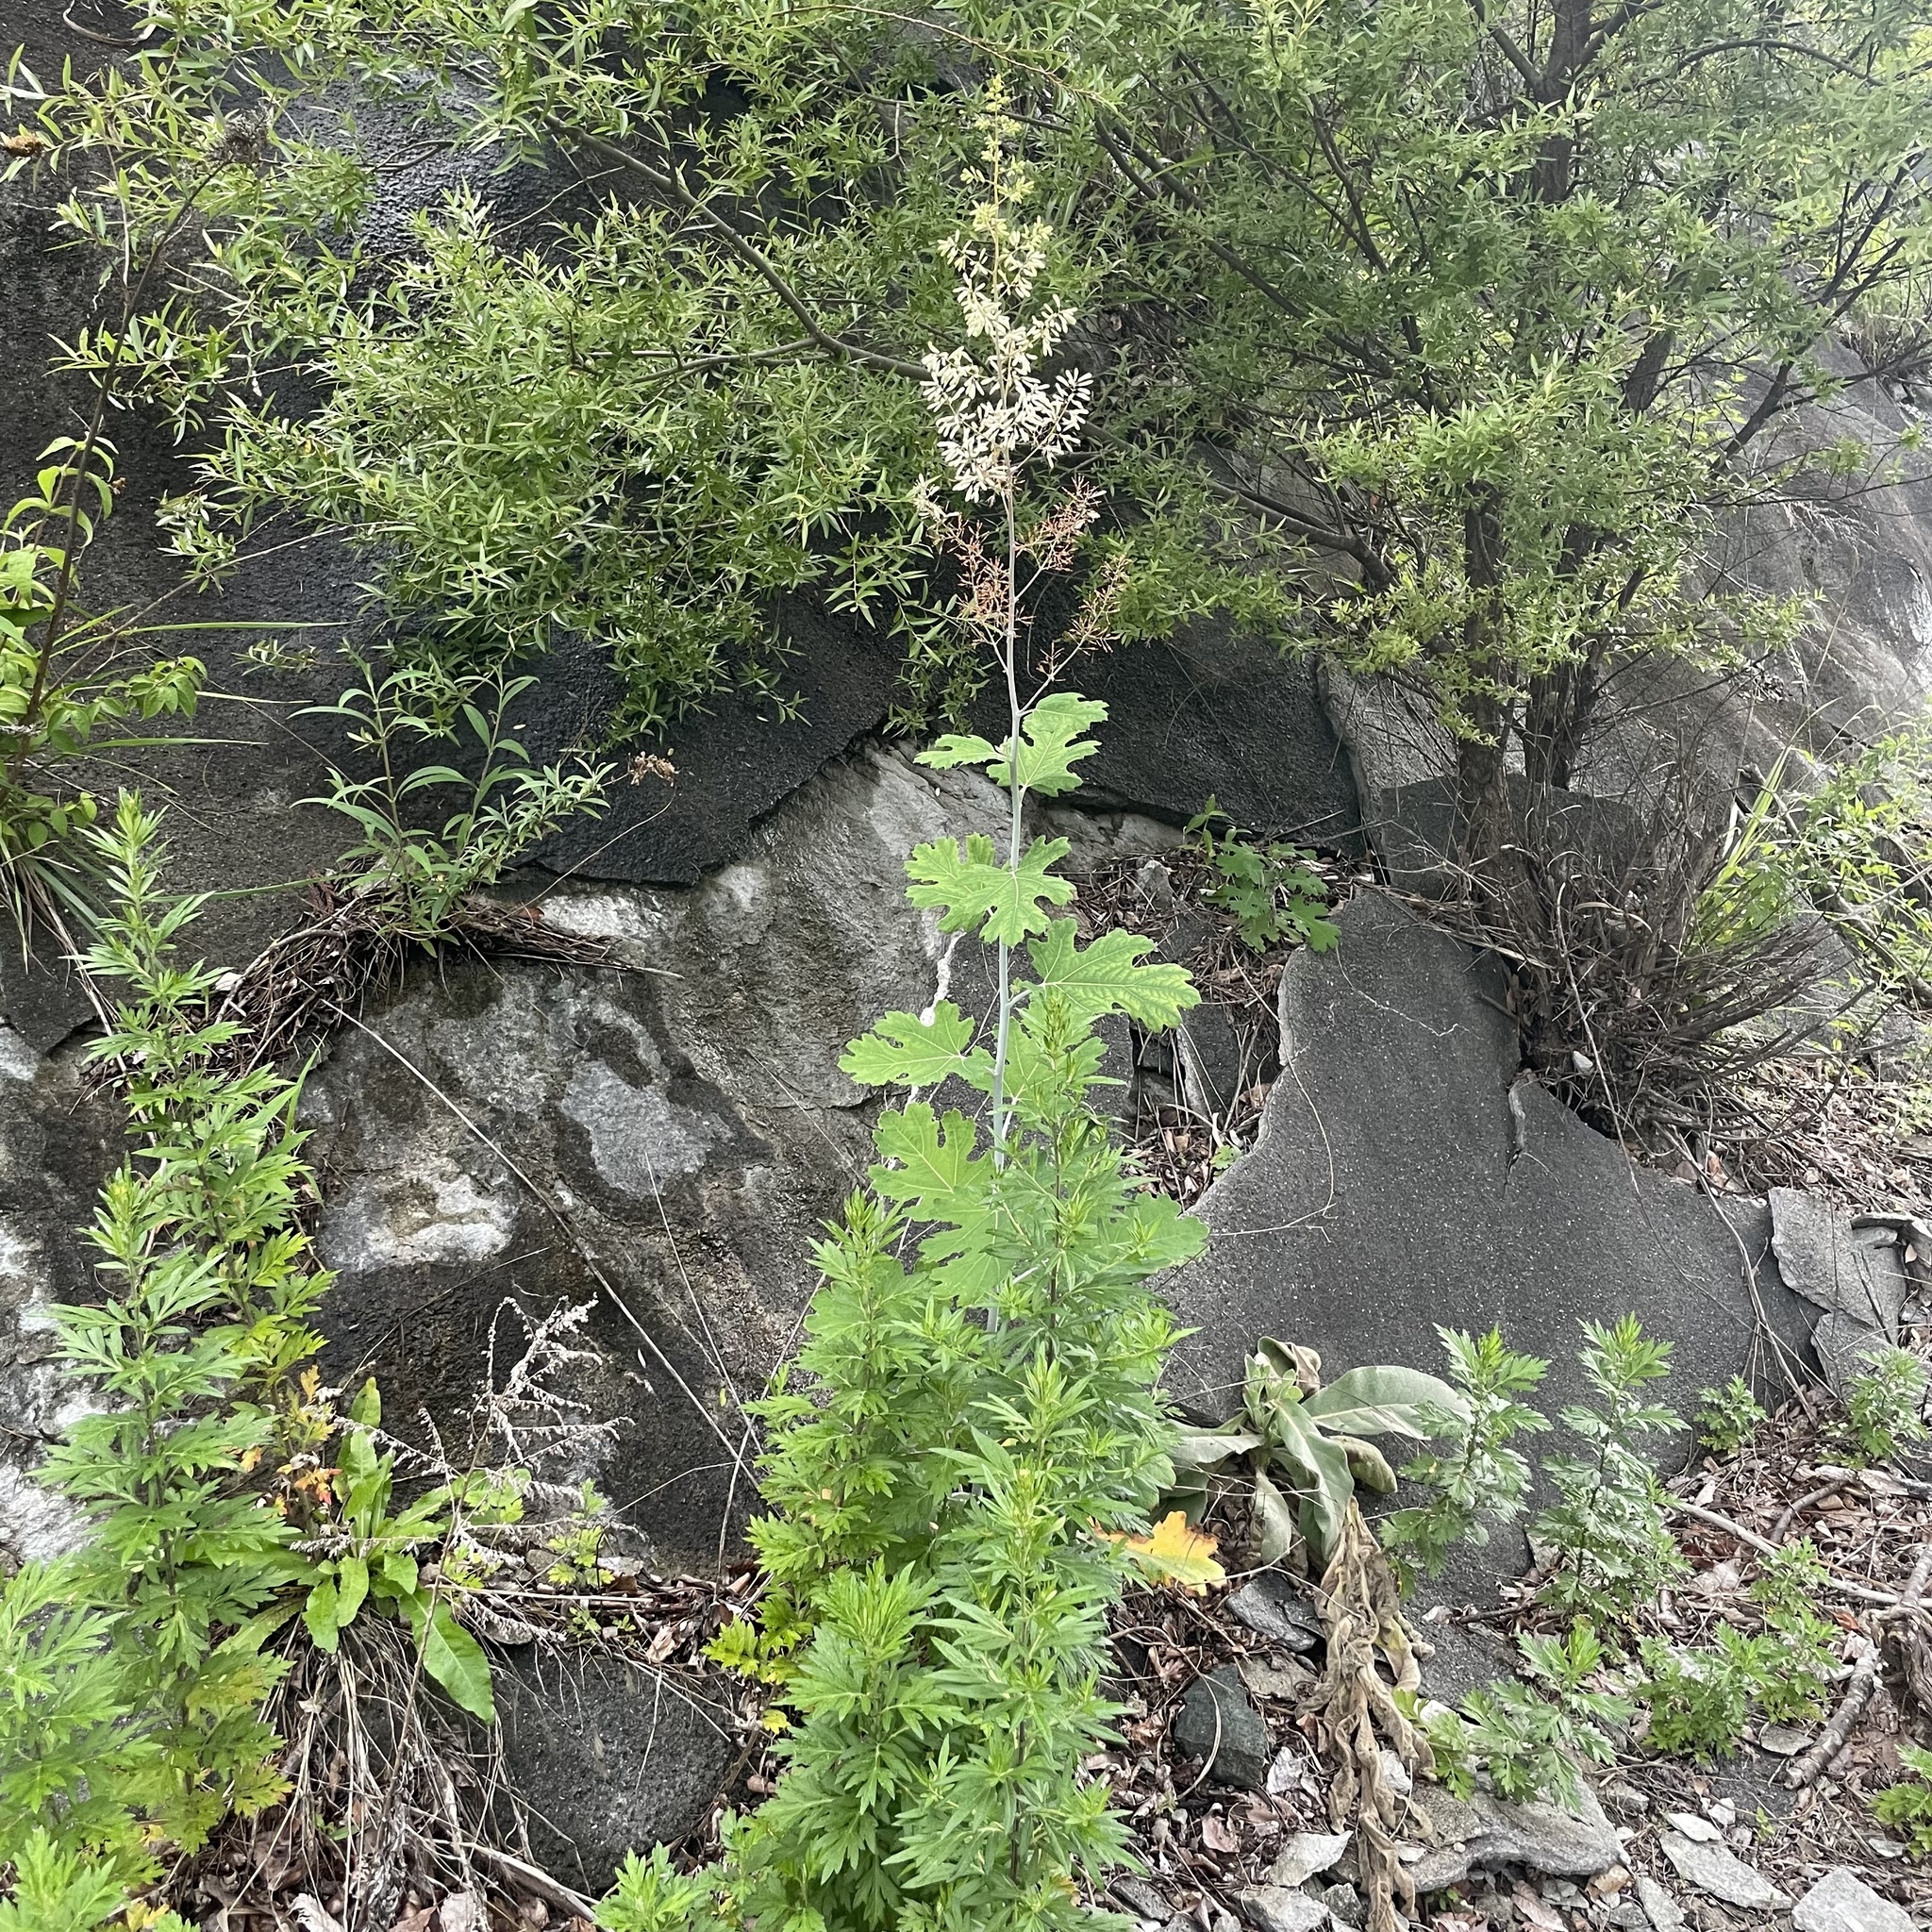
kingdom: Plantae
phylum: Tracheophyta
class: Magnoliopsida
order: Ranunculales
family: Papaveraceae
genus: Macleaya
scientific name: Macleaya cordata
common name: Plume poppy
